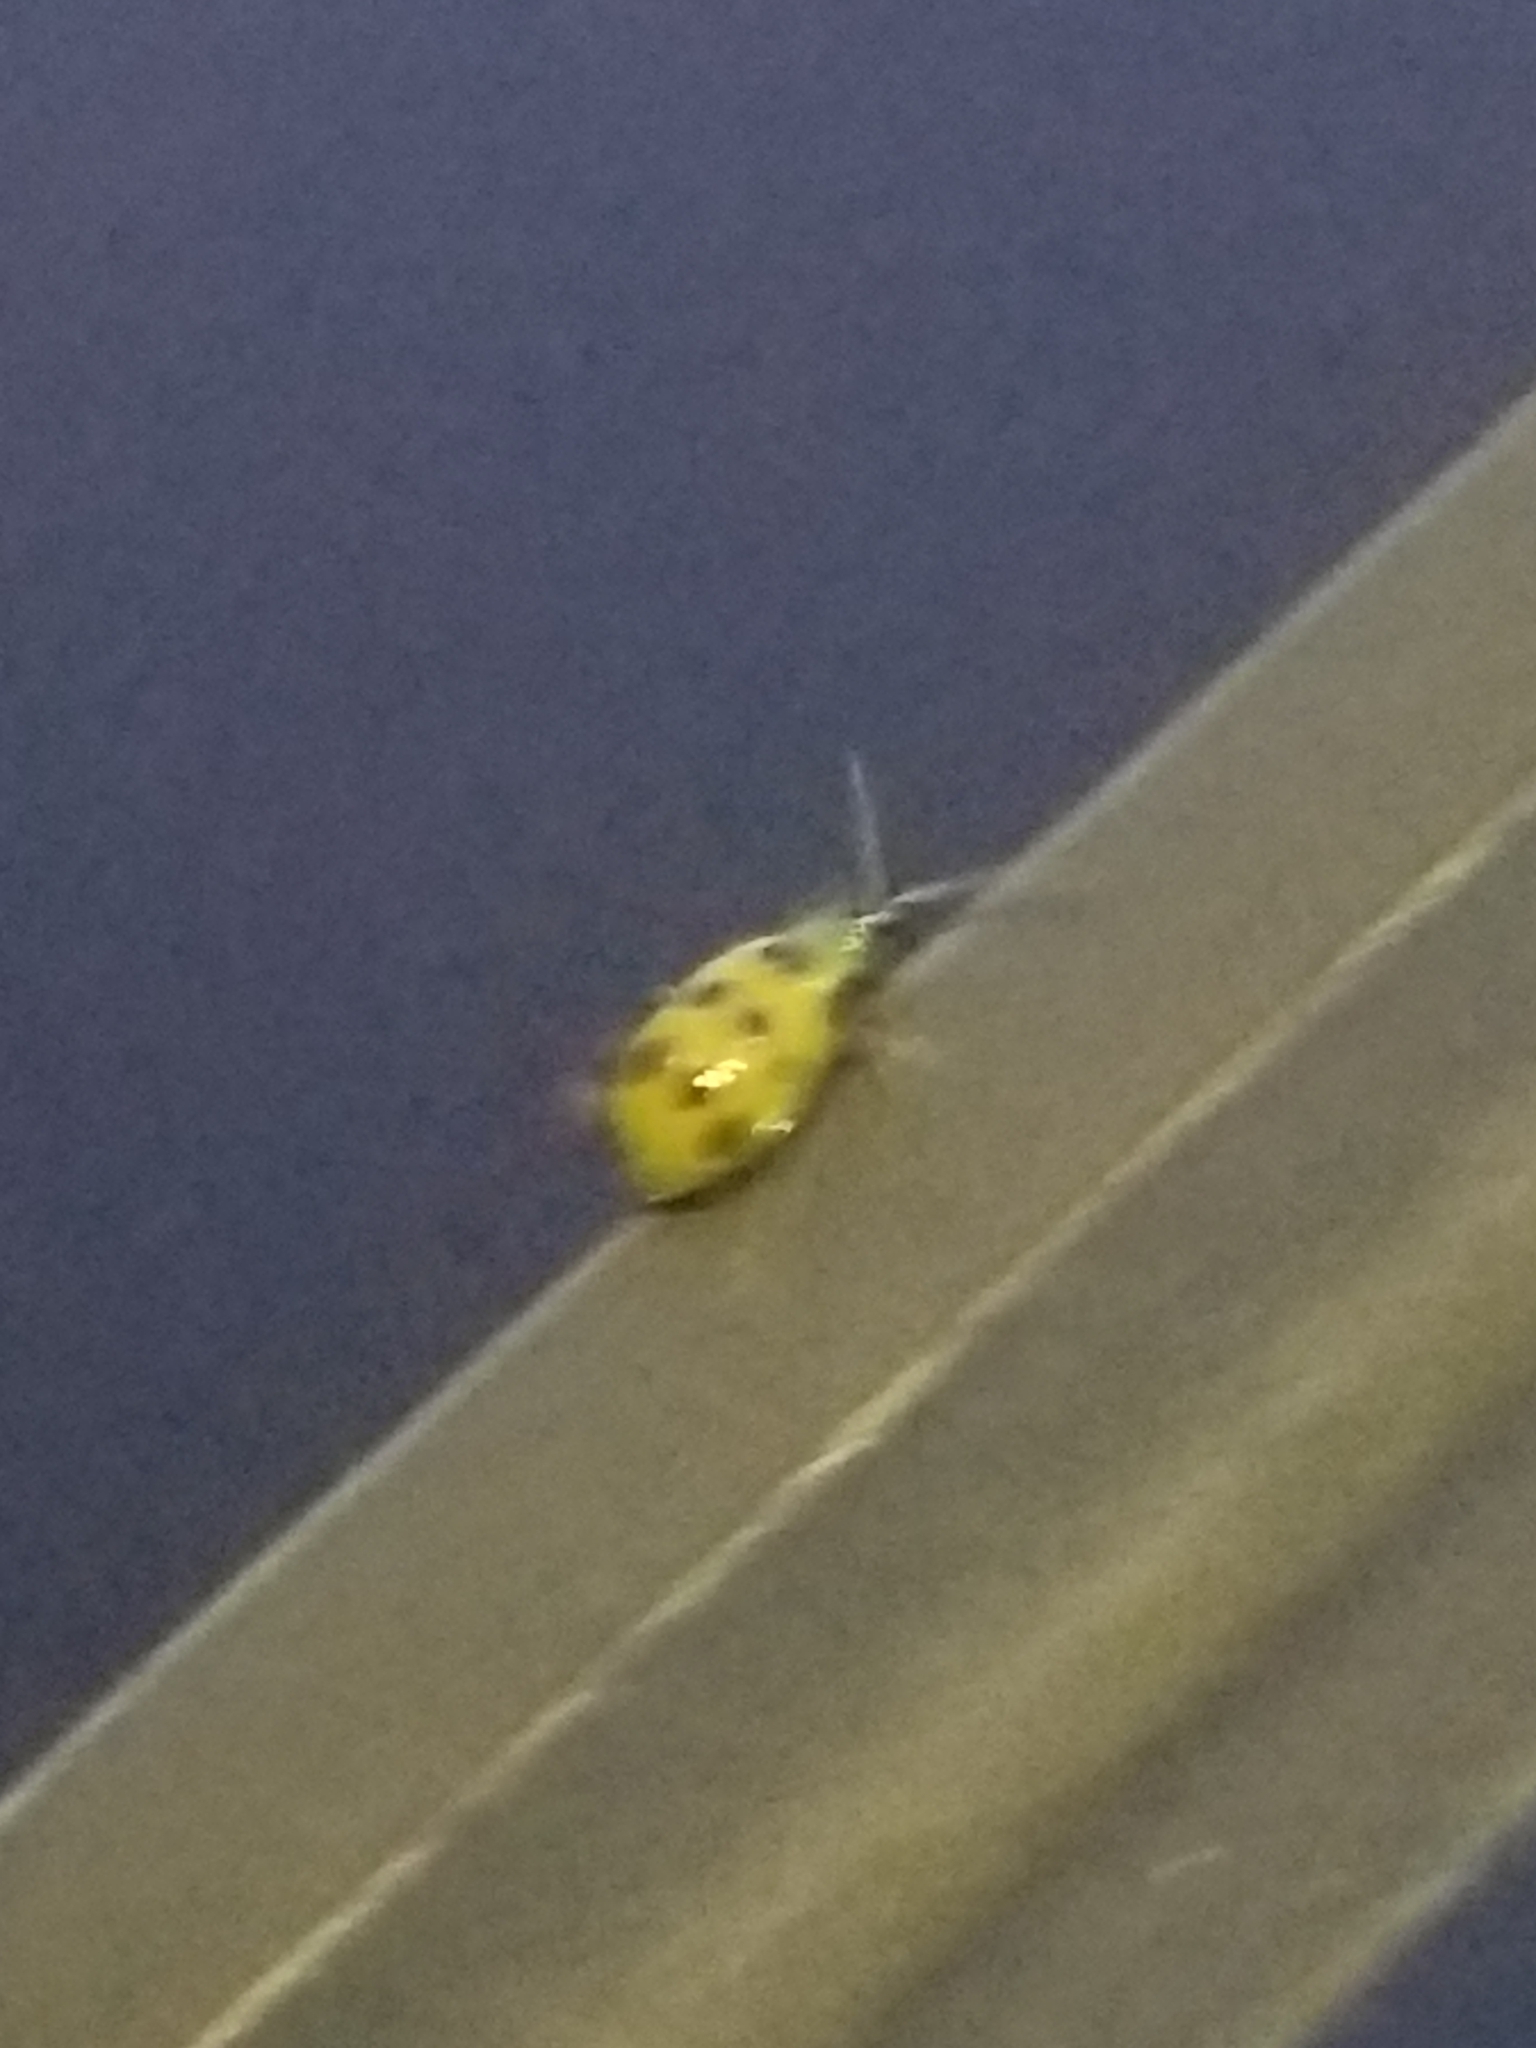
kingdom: Animalia
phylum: Arthropoda
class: Insecta
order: Coleoptera
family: Chrysomelidae
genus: Diabrotica
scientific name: Diabrotica undecimpunctata
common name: Spotted cucumber beetle
